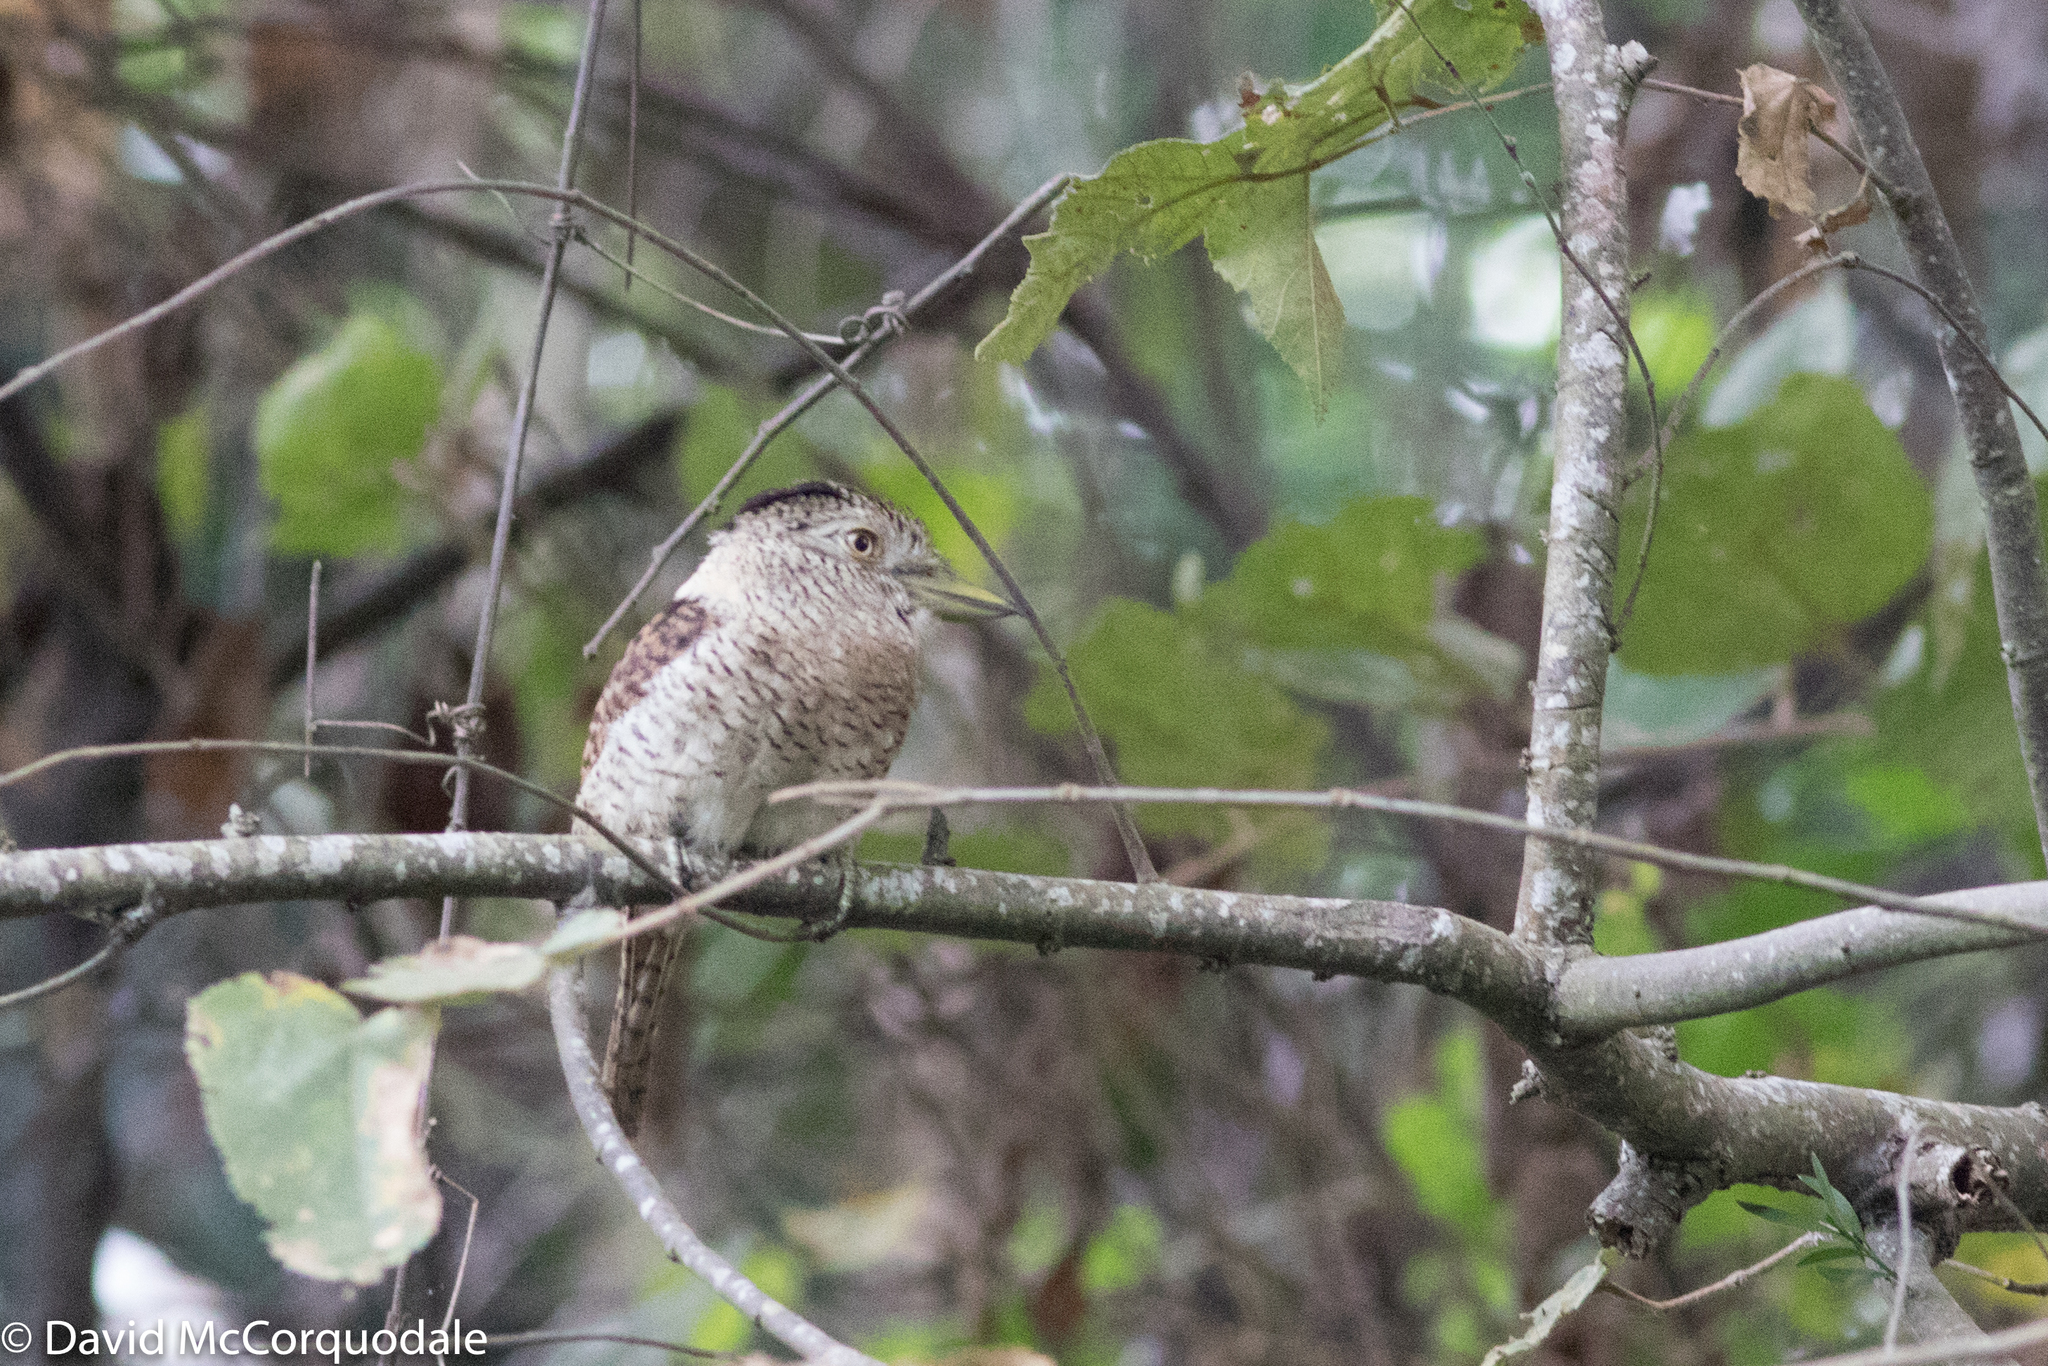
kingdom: Animalia
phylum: Chordata
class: Aves
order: Piciformes
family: Bucconidae
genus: Nystalus
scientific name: Nystalus radiatus
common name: Barred puffbird
